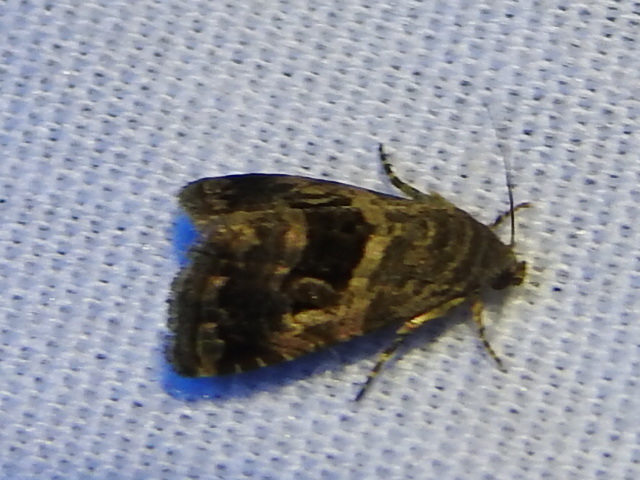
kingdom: Animalia
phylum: Arthropoda
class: Insecta
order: Lepidoptera
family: Noctuidae
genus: Tripudia
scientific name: Tripudia quadrifera
